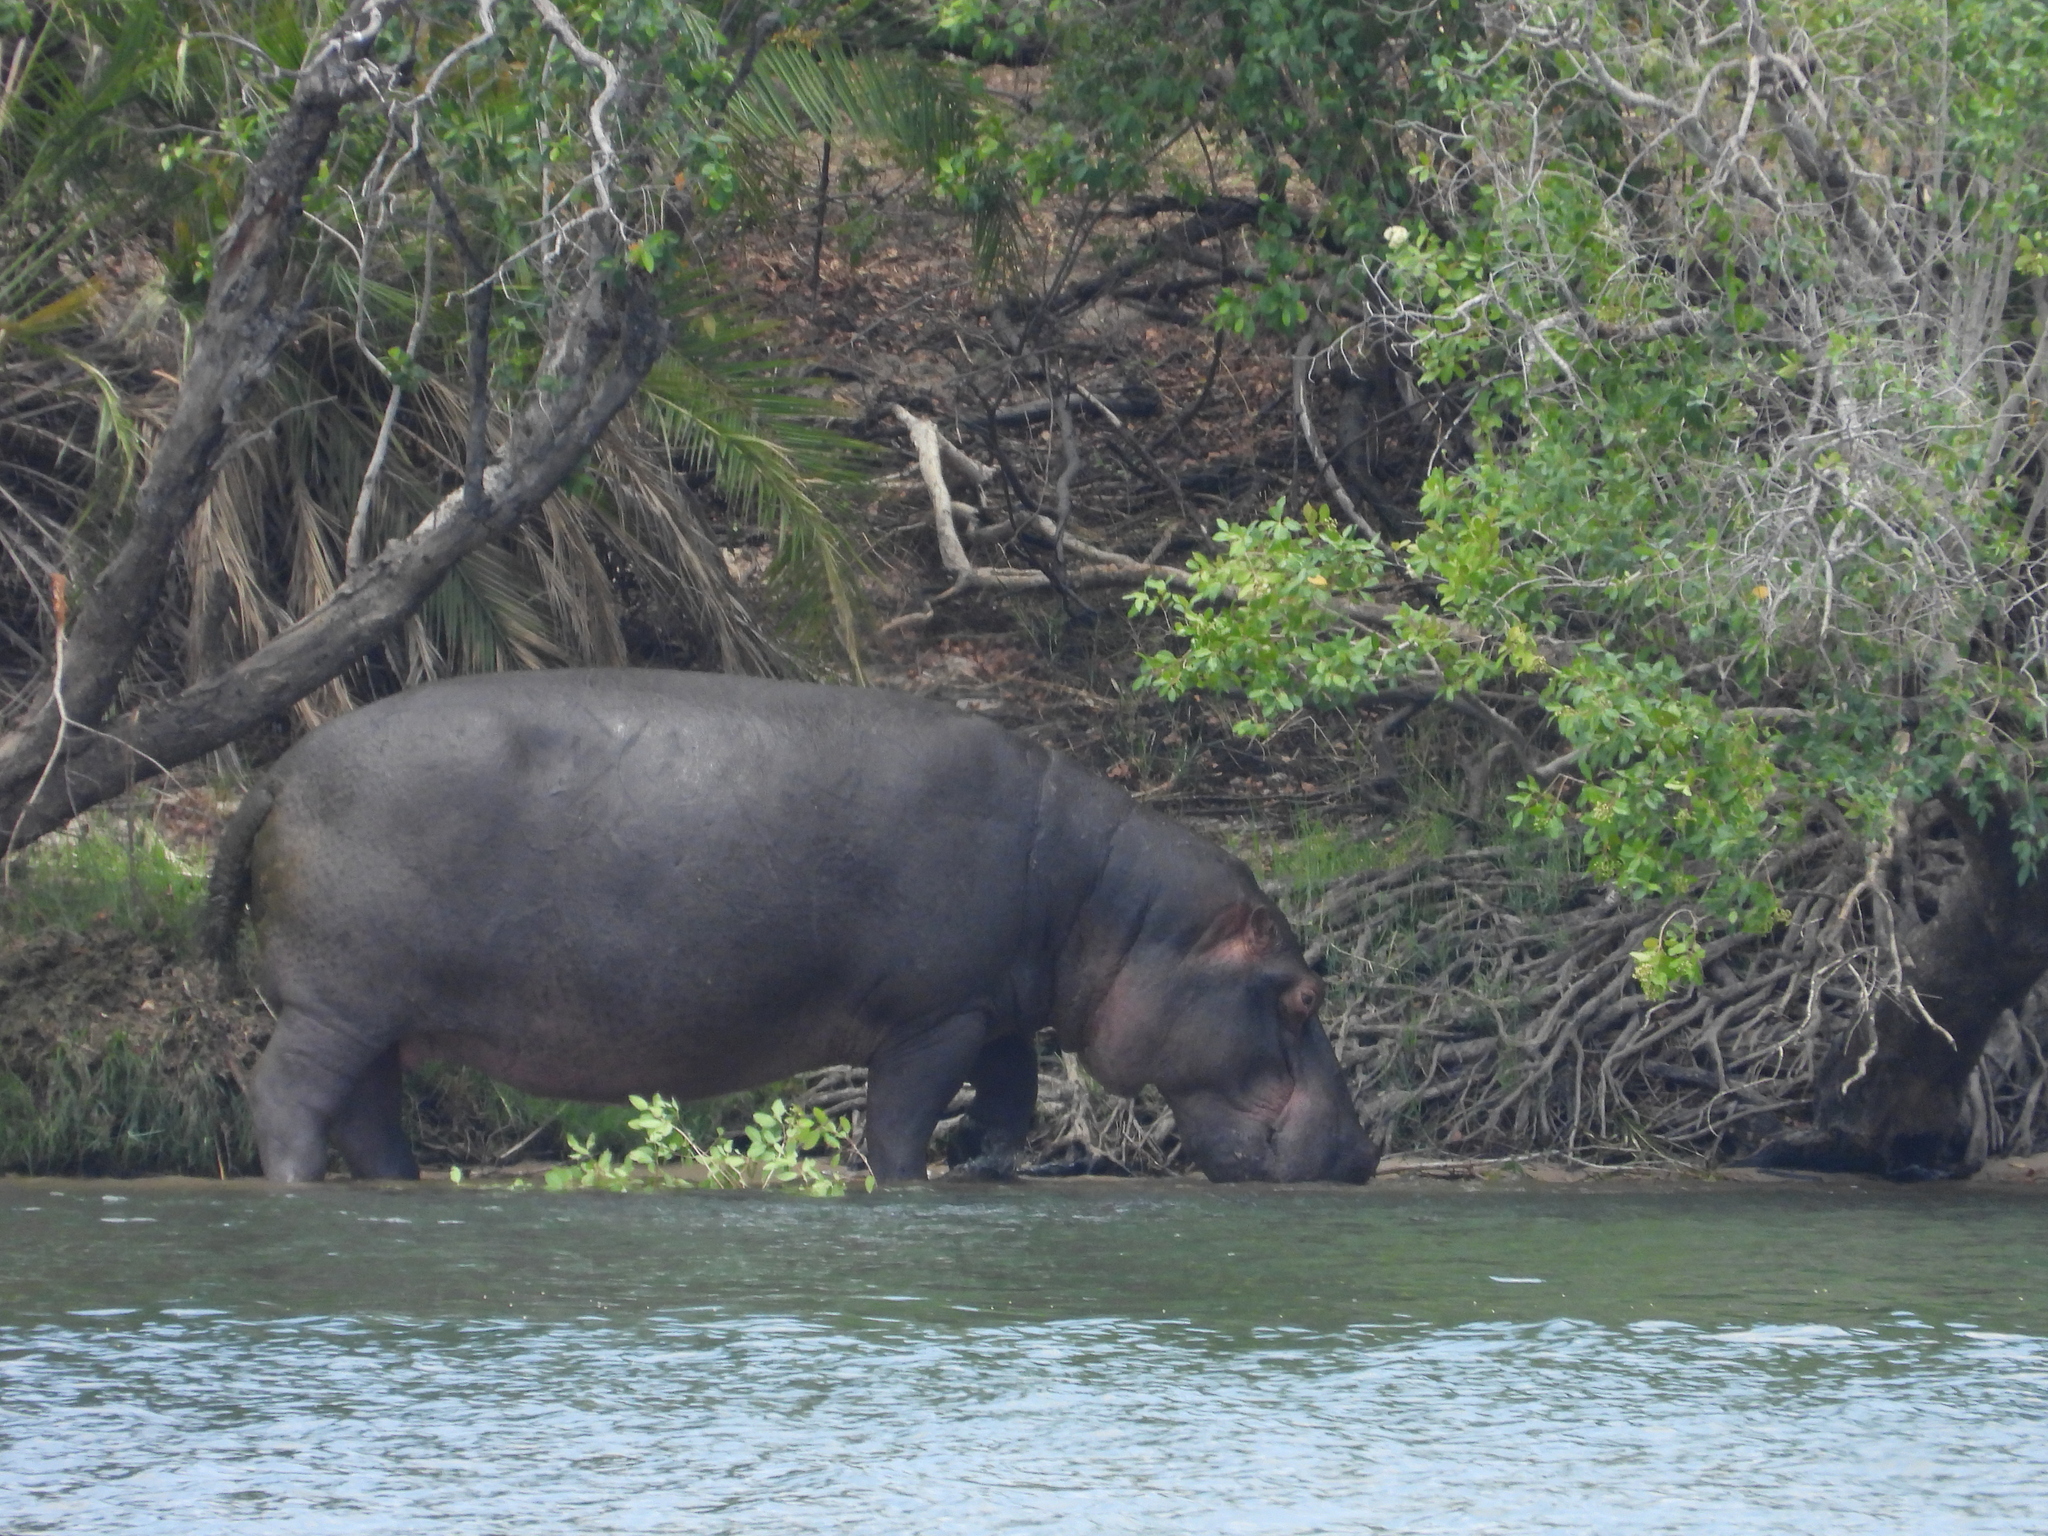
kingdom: Animalia
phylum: Chordata
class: Mammalia
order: Artiodactyla
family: Hippopotamidae
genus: Hippopotamus
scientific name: Hippopotamus amphibius
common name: Common hippopotamus
